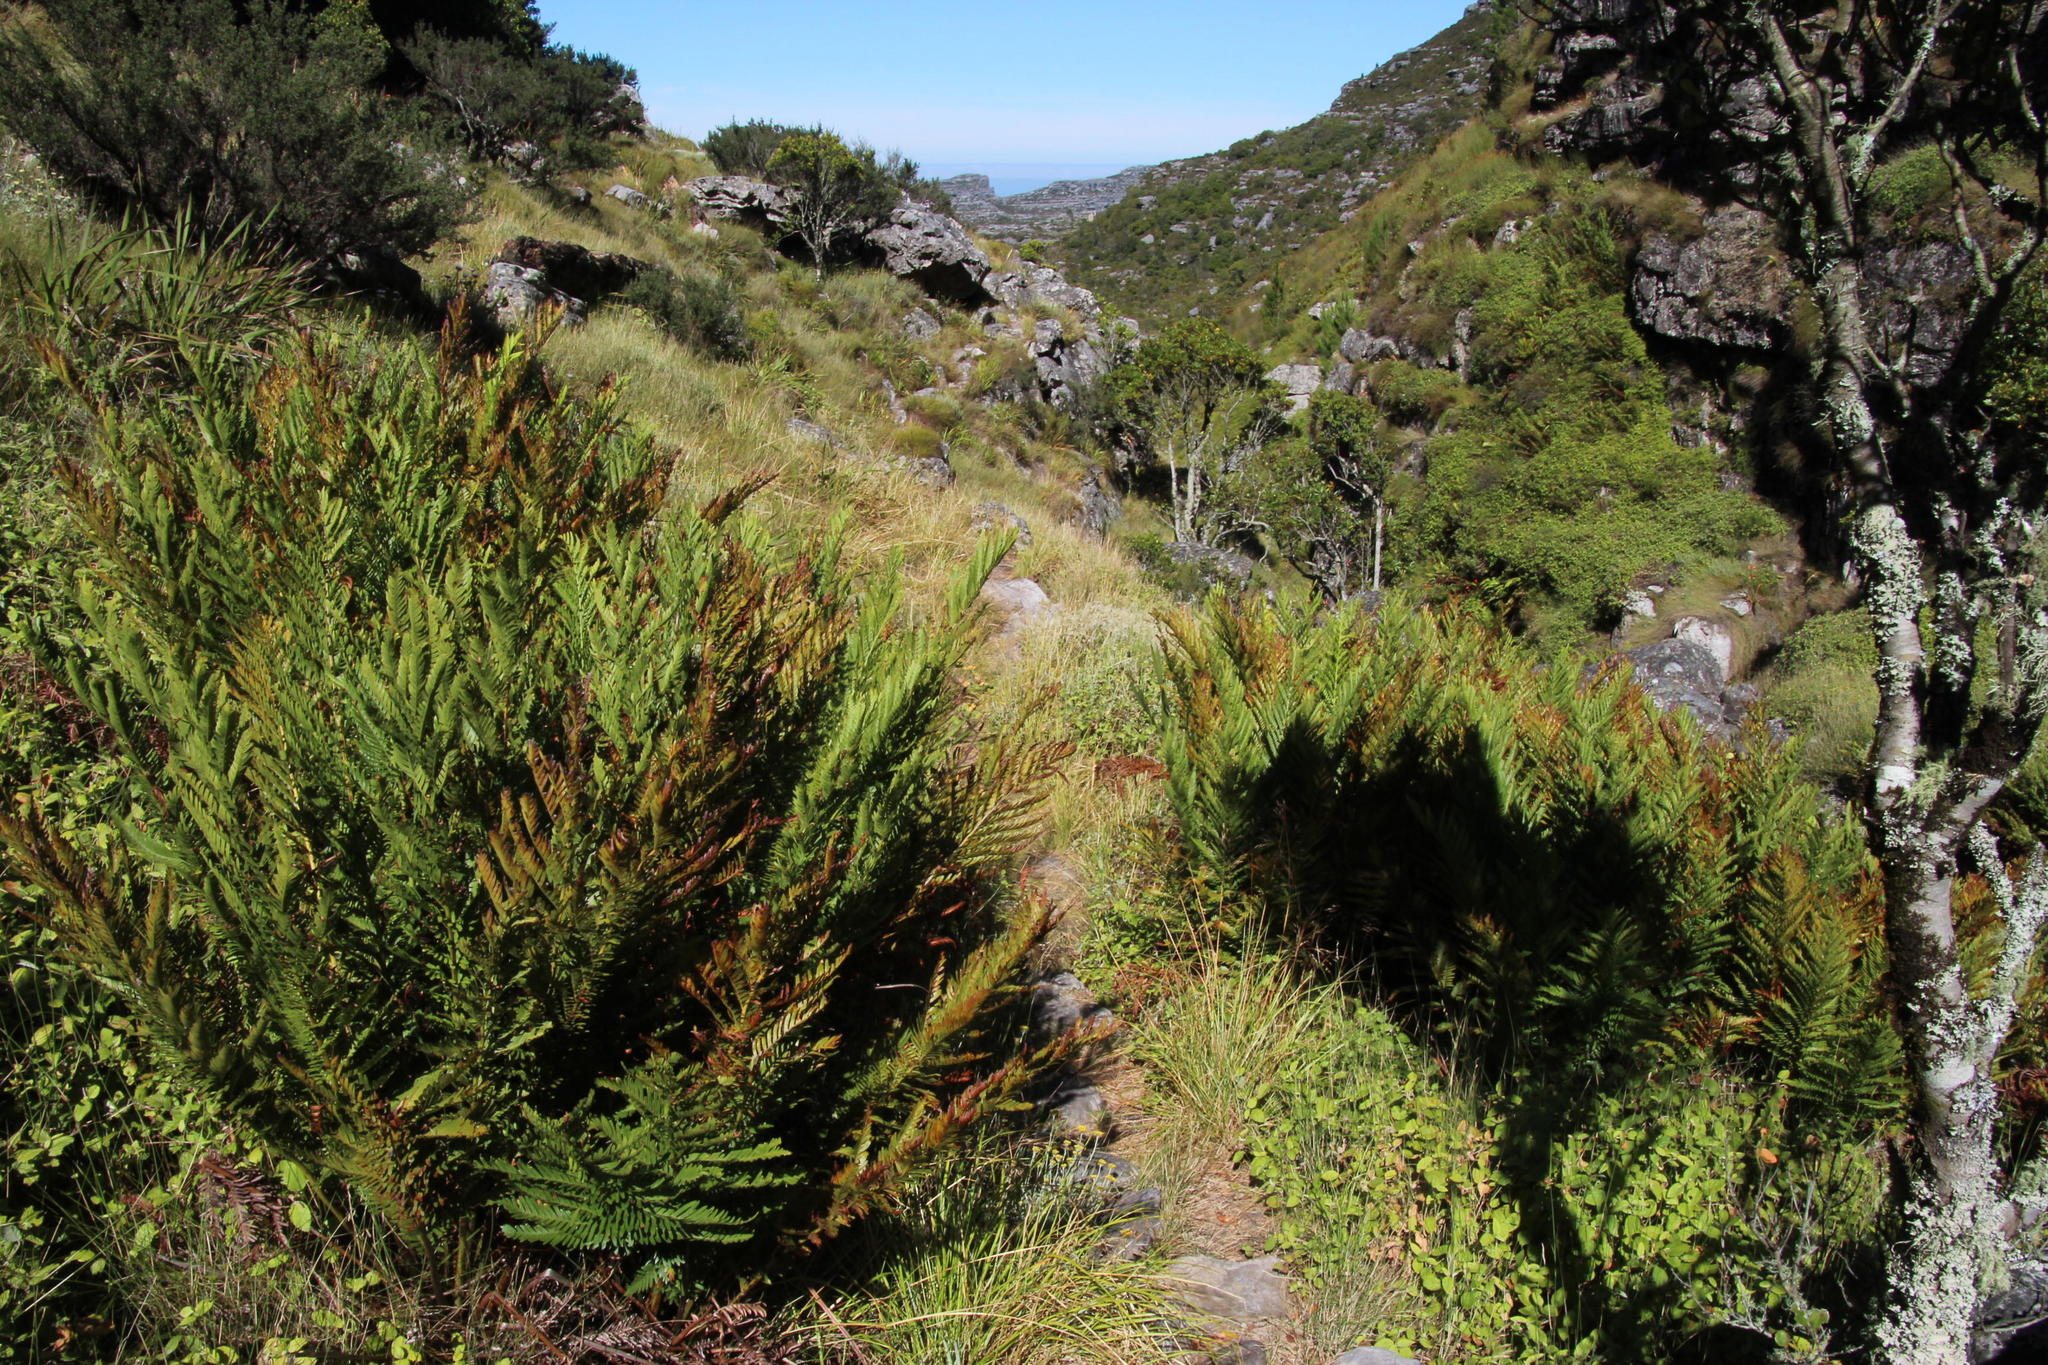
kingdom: Plantae
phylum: Tracheophyta
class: Polypodiopsida
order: Osmundales
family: Osmundaceae
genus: Todea
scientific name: Todea barbara
